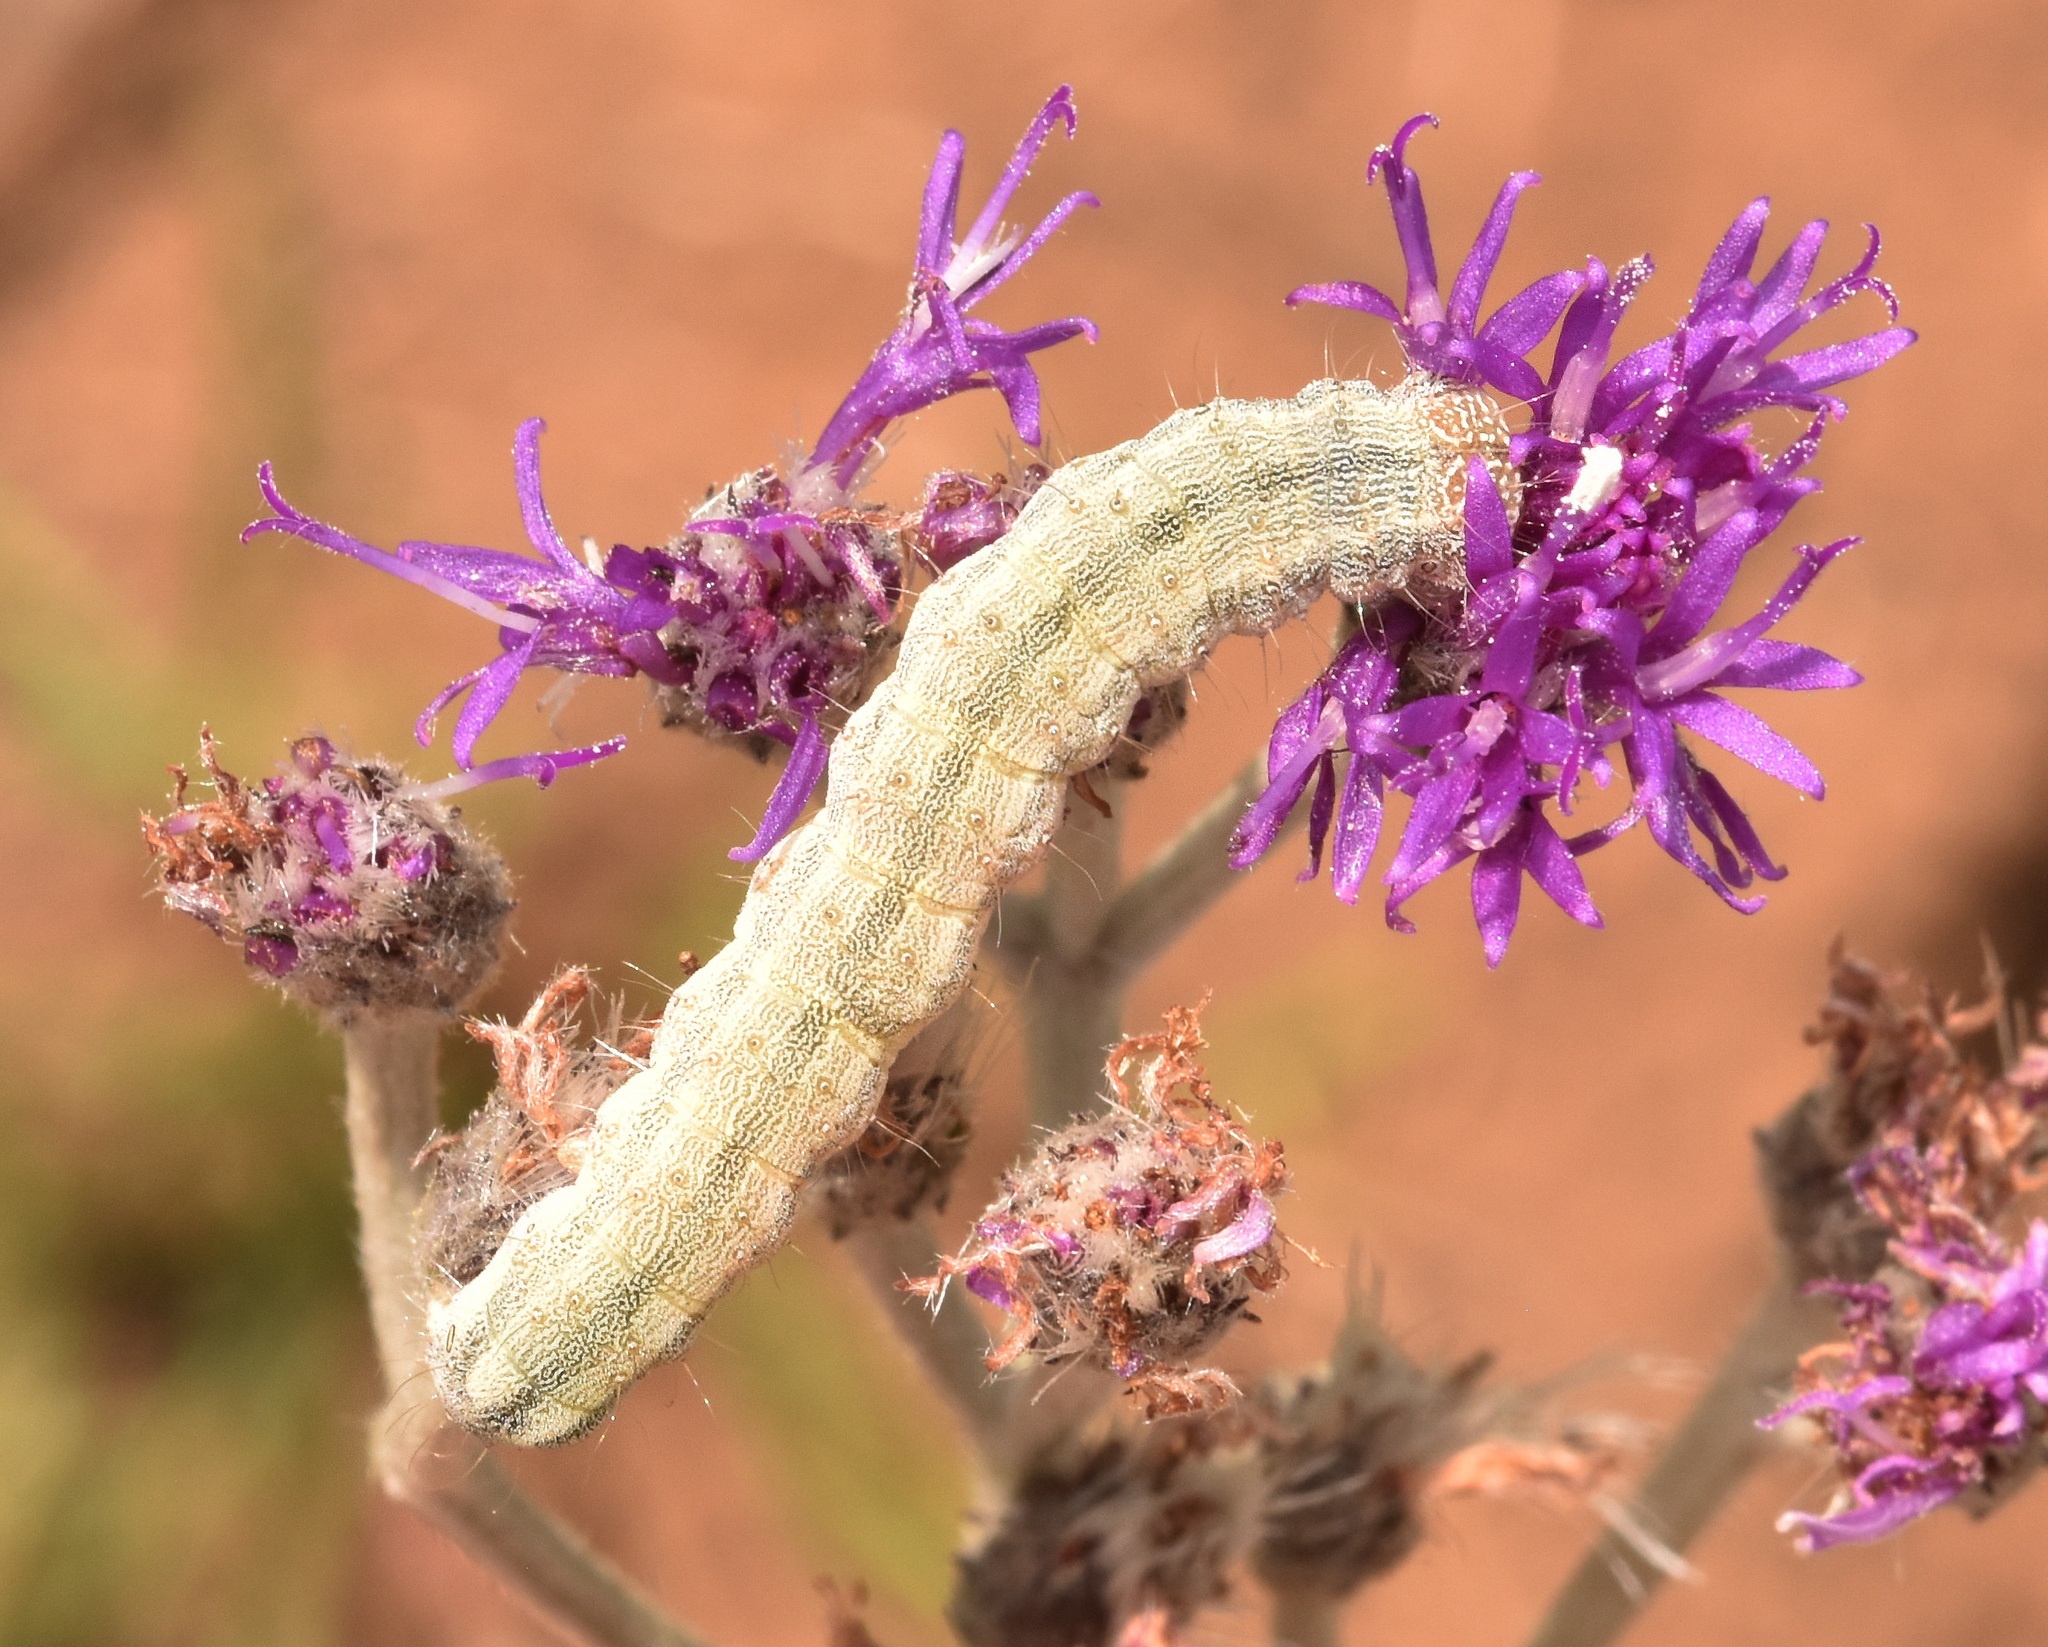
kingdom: Animalia
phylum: Arthropoda
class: Insecta
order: Lepidoptera
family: Noctuidae
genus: Helicoverpa
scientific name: Helicoverpa armigera
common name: Cotton bollworm
